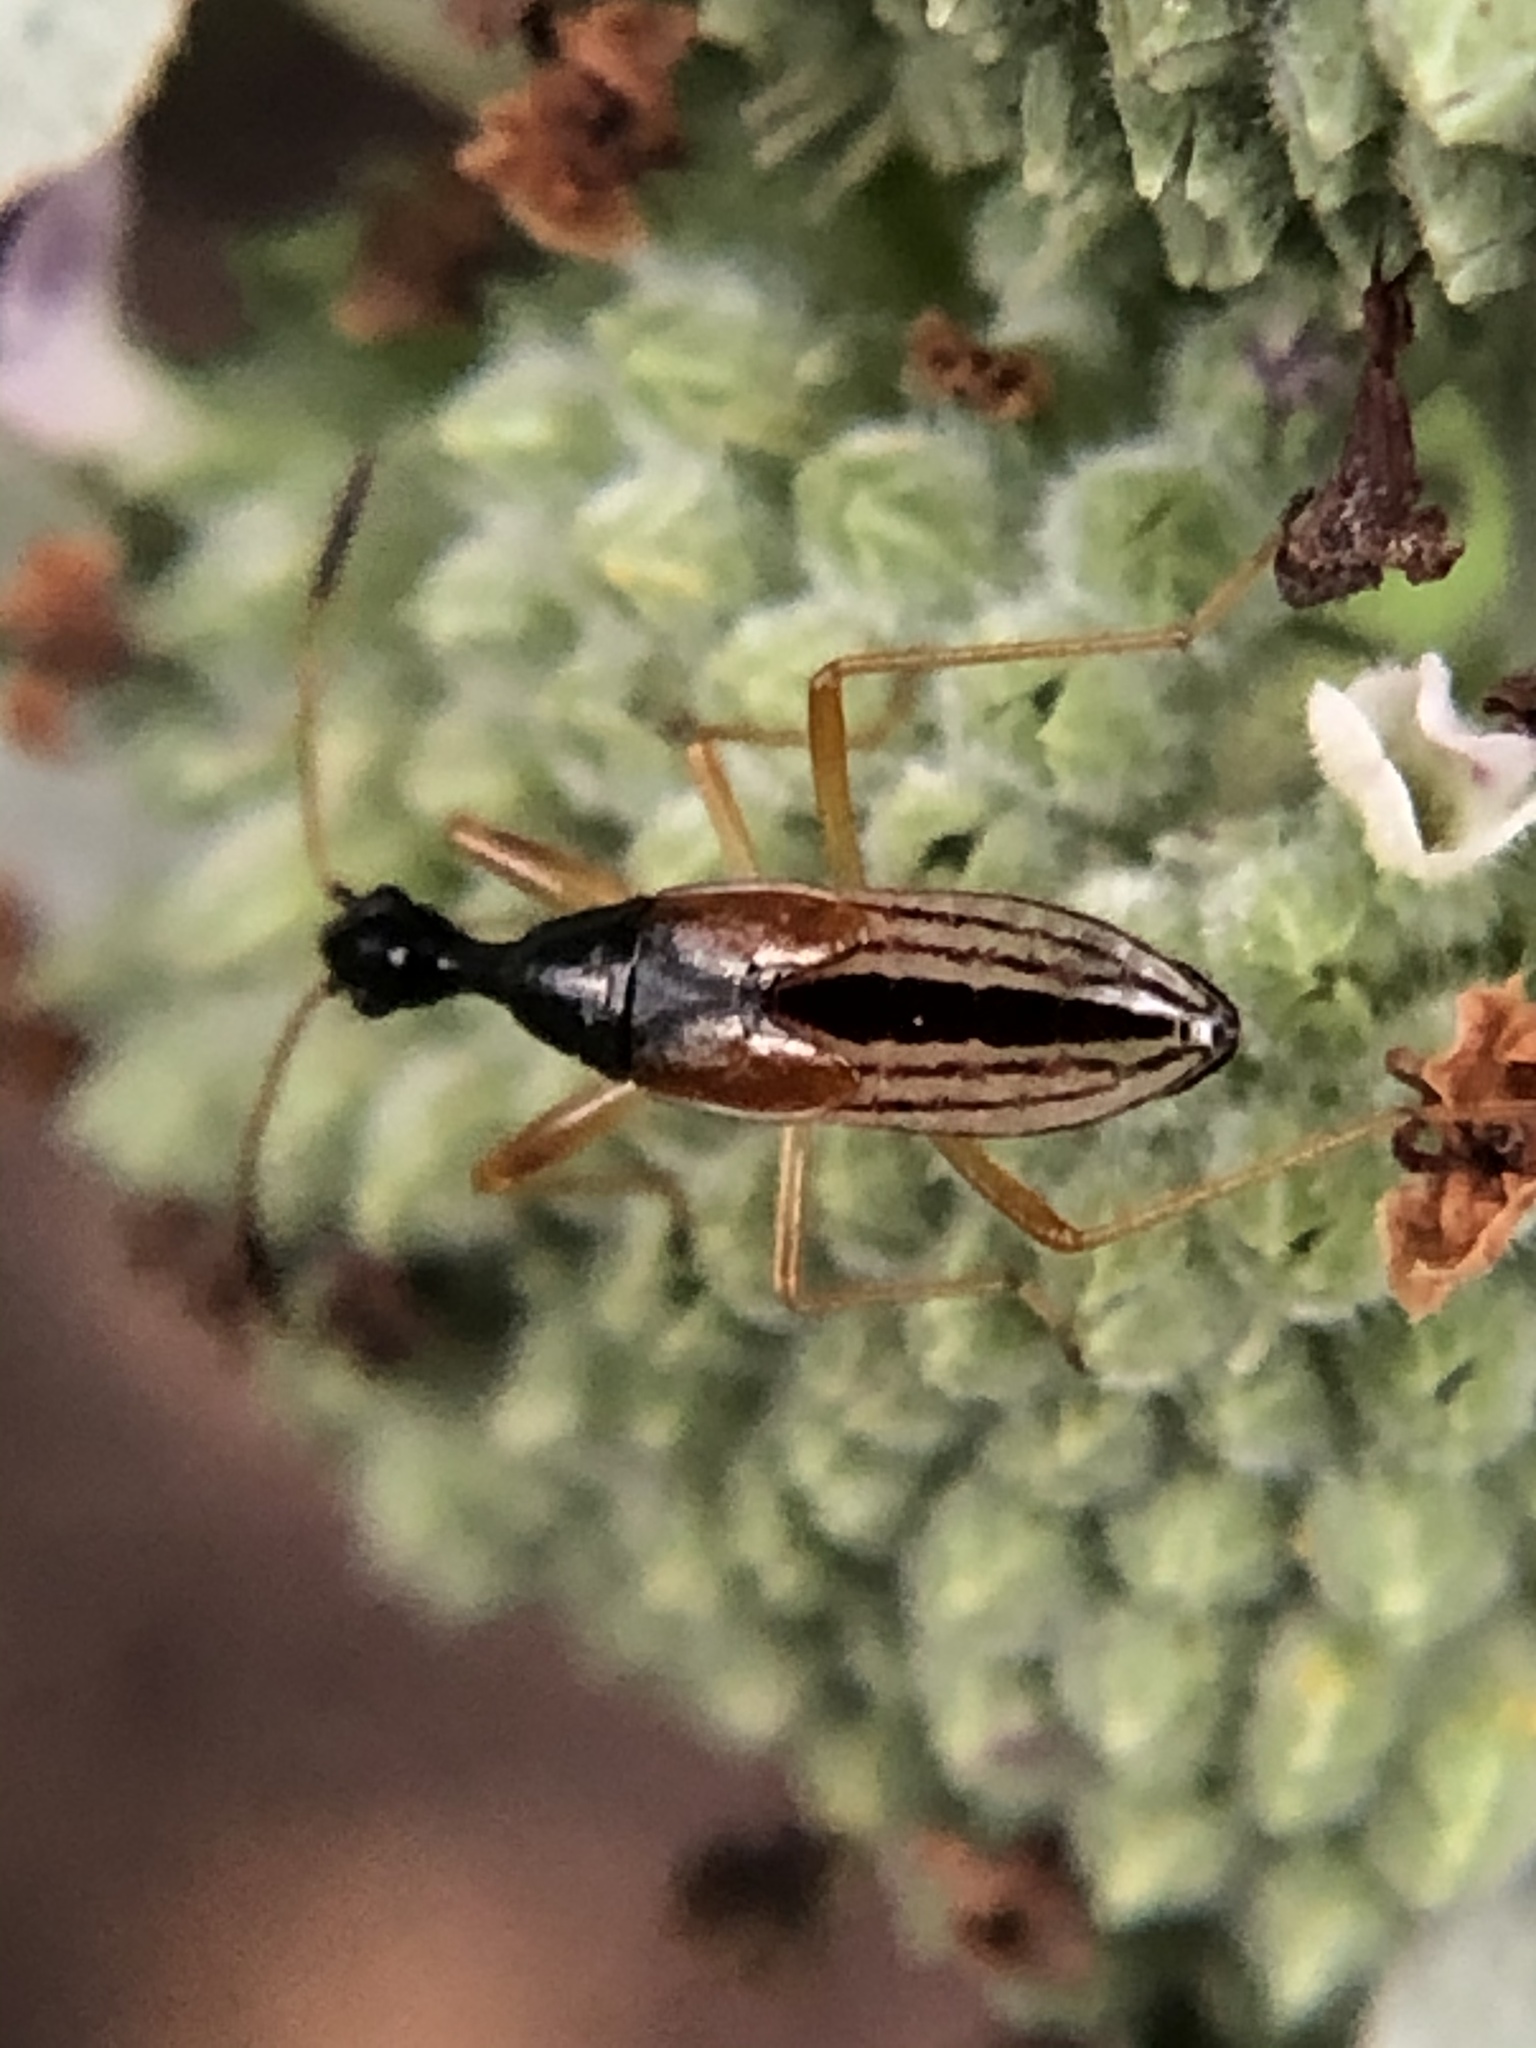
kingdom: Animalia
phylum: Arthropoda
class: Insecta
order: Hemiptera
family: Rhyparochromidae
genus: Myodocha
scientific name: Myodocha serripes
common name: Long-necked seed bug
